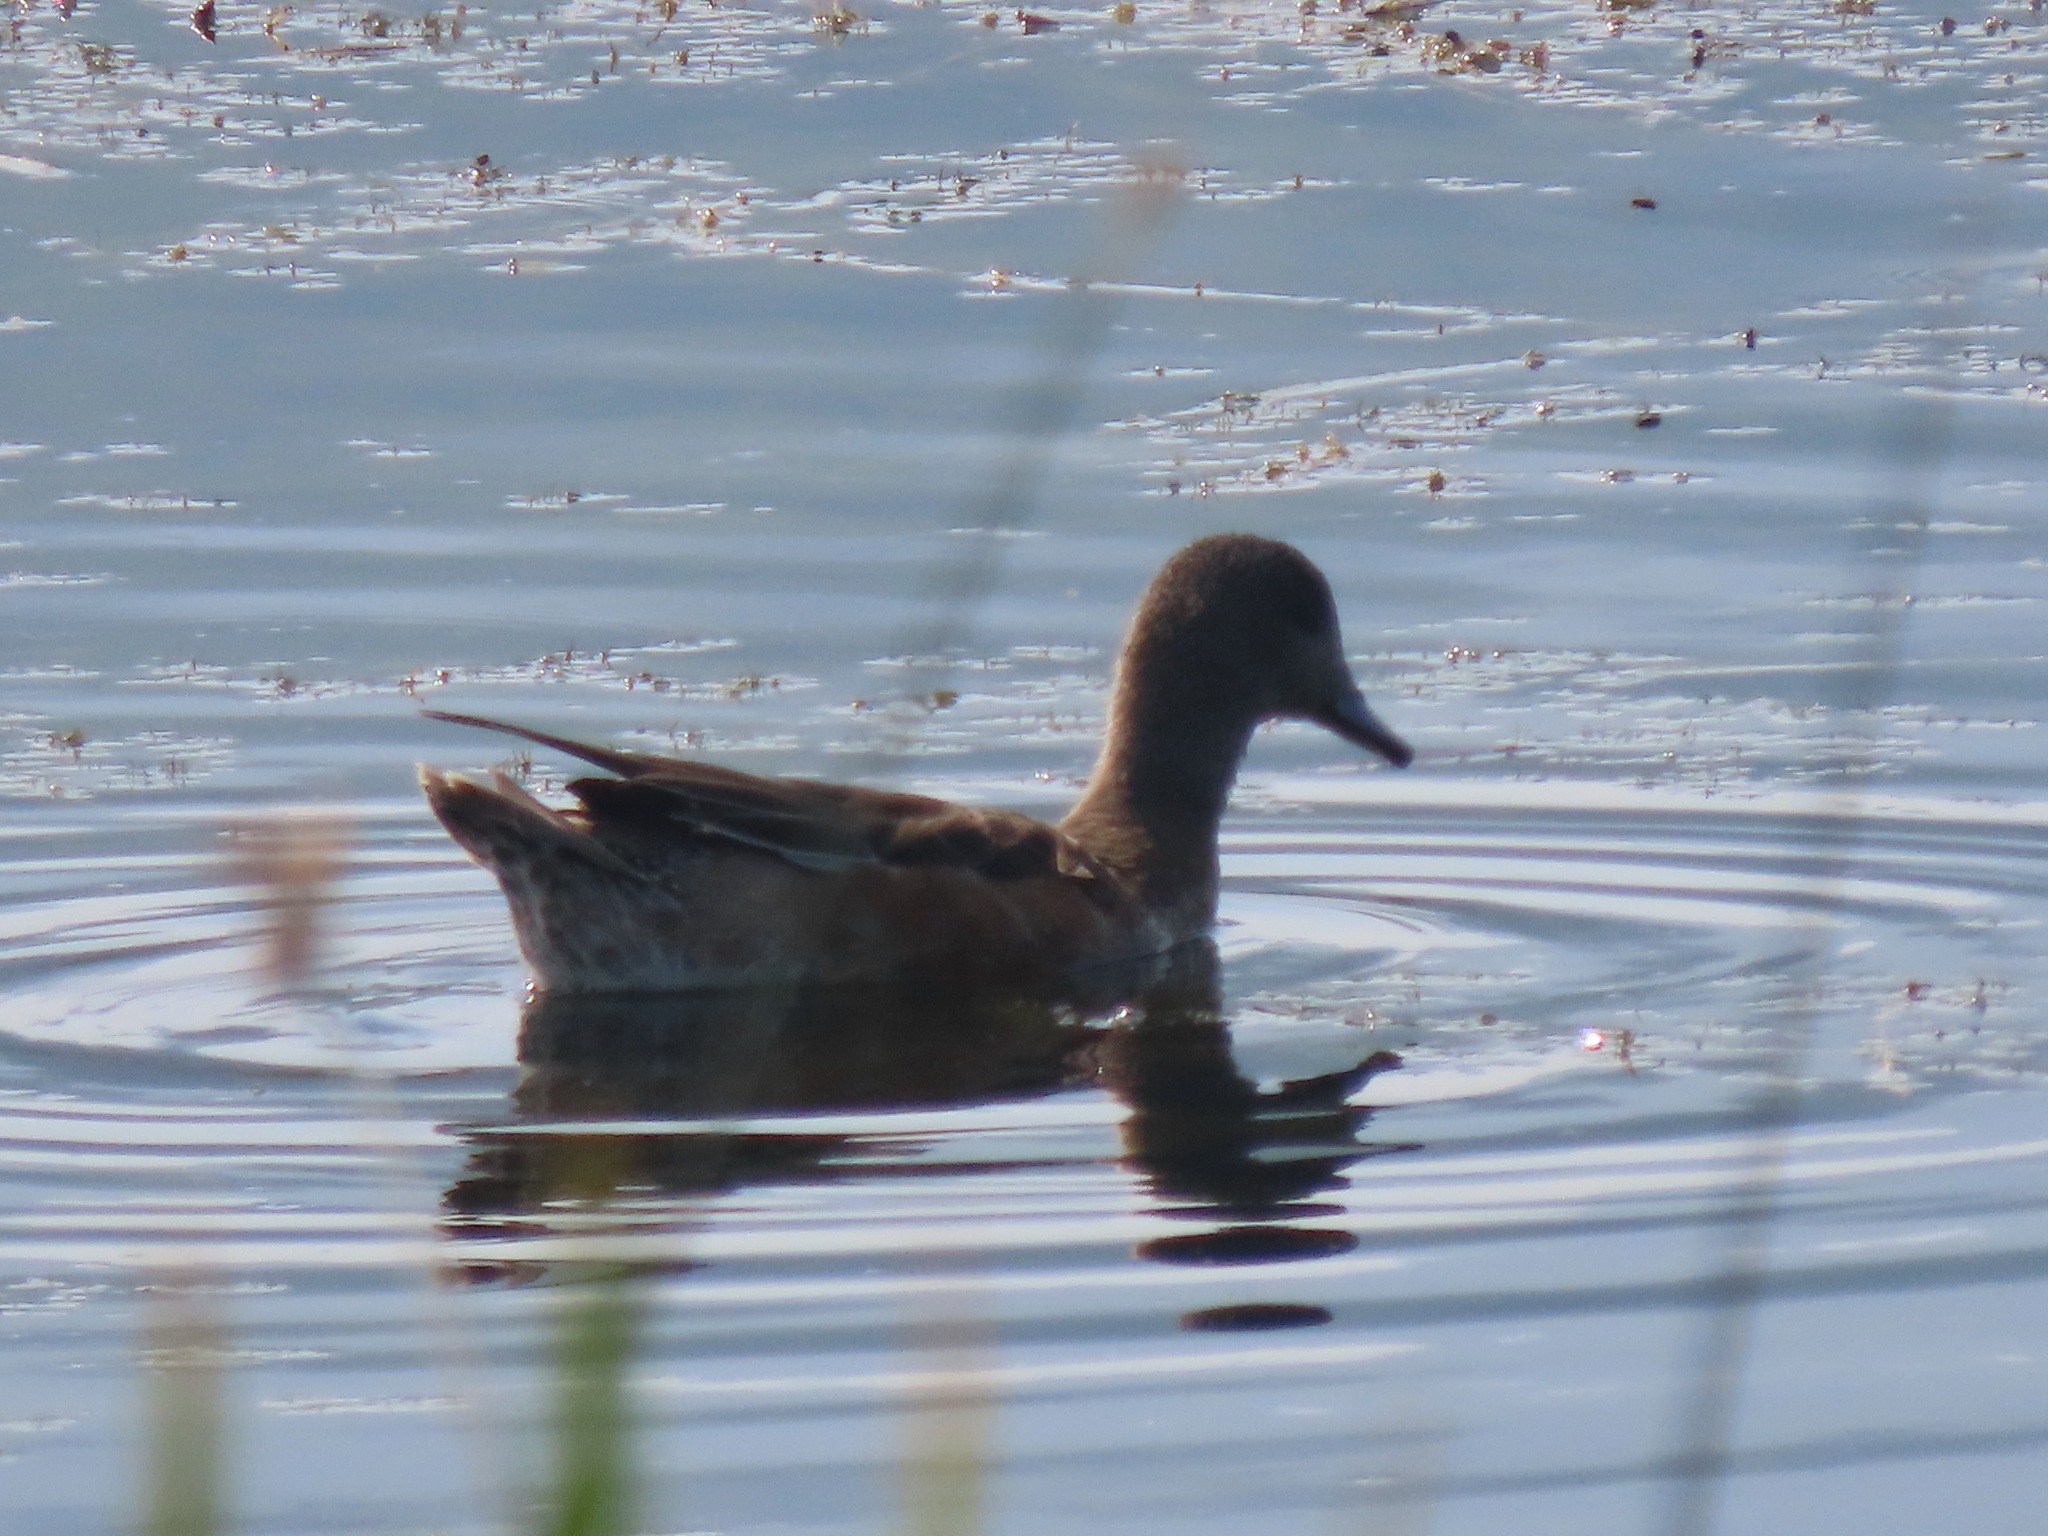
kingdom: Animalia
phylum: Chordata
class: Aves
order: Anseriformes
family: Anatidae
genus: Mareca
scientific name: Mareca americana
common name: American wigeon
